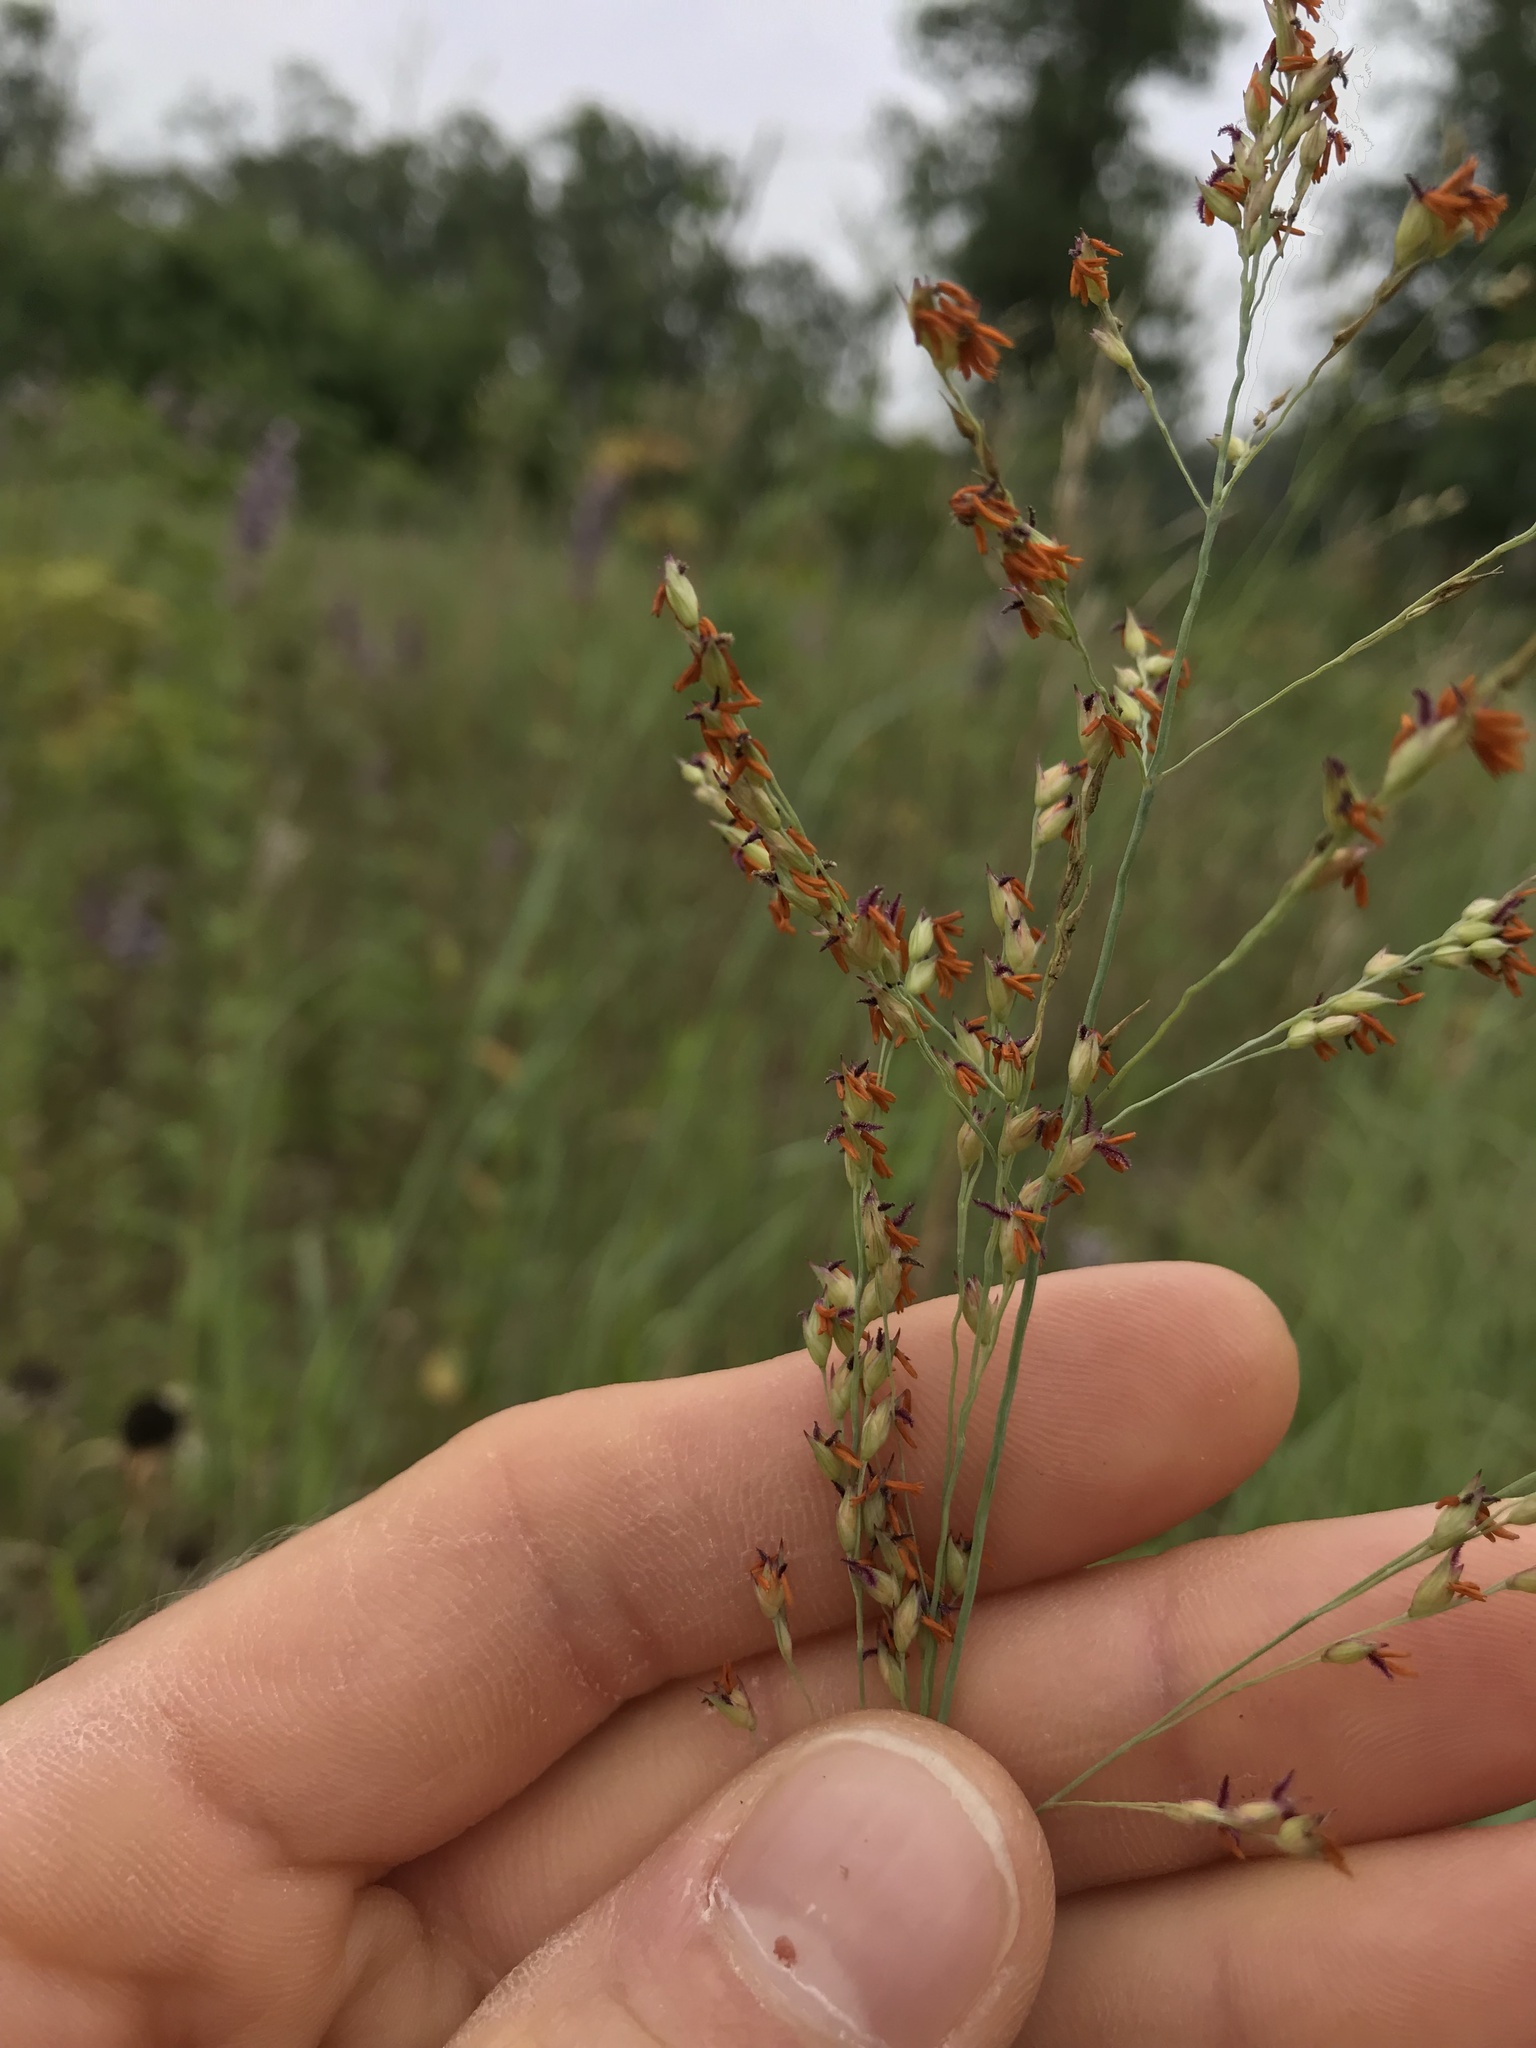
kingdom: Plantae
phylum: Tracheophyta
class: Liliopsida
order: Poales
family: Poaceae
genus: Panicum
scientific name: Panicum virgatum
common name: Switchgrass
